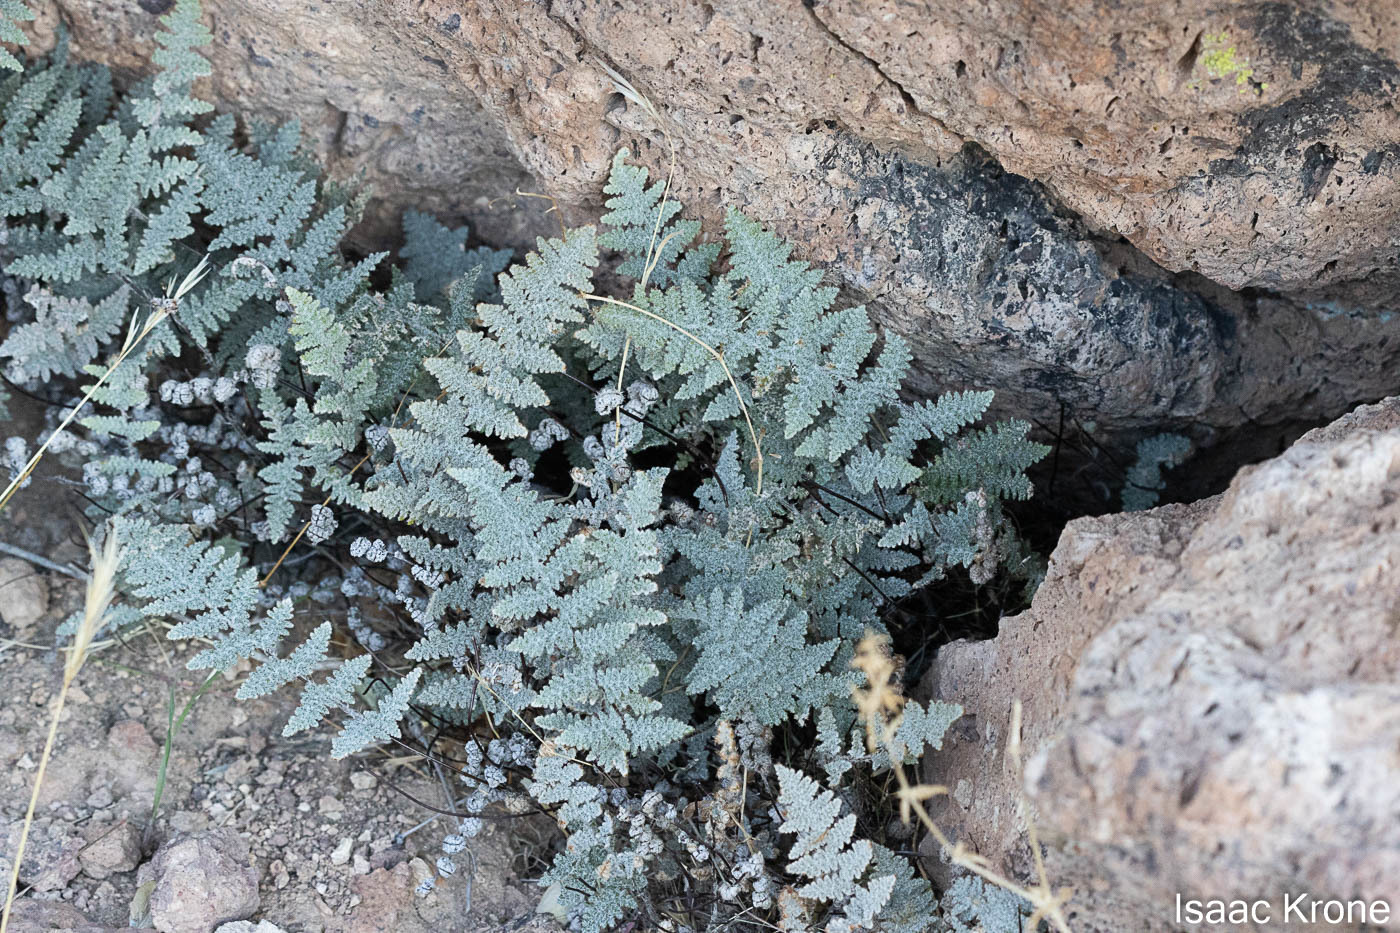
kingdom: Plantae
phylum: Tracheophyta
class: Polypodiopsida
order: Polypodiales
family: Pteridaceae
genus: Myriopteris
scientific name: Myriopteris lindheimeri
